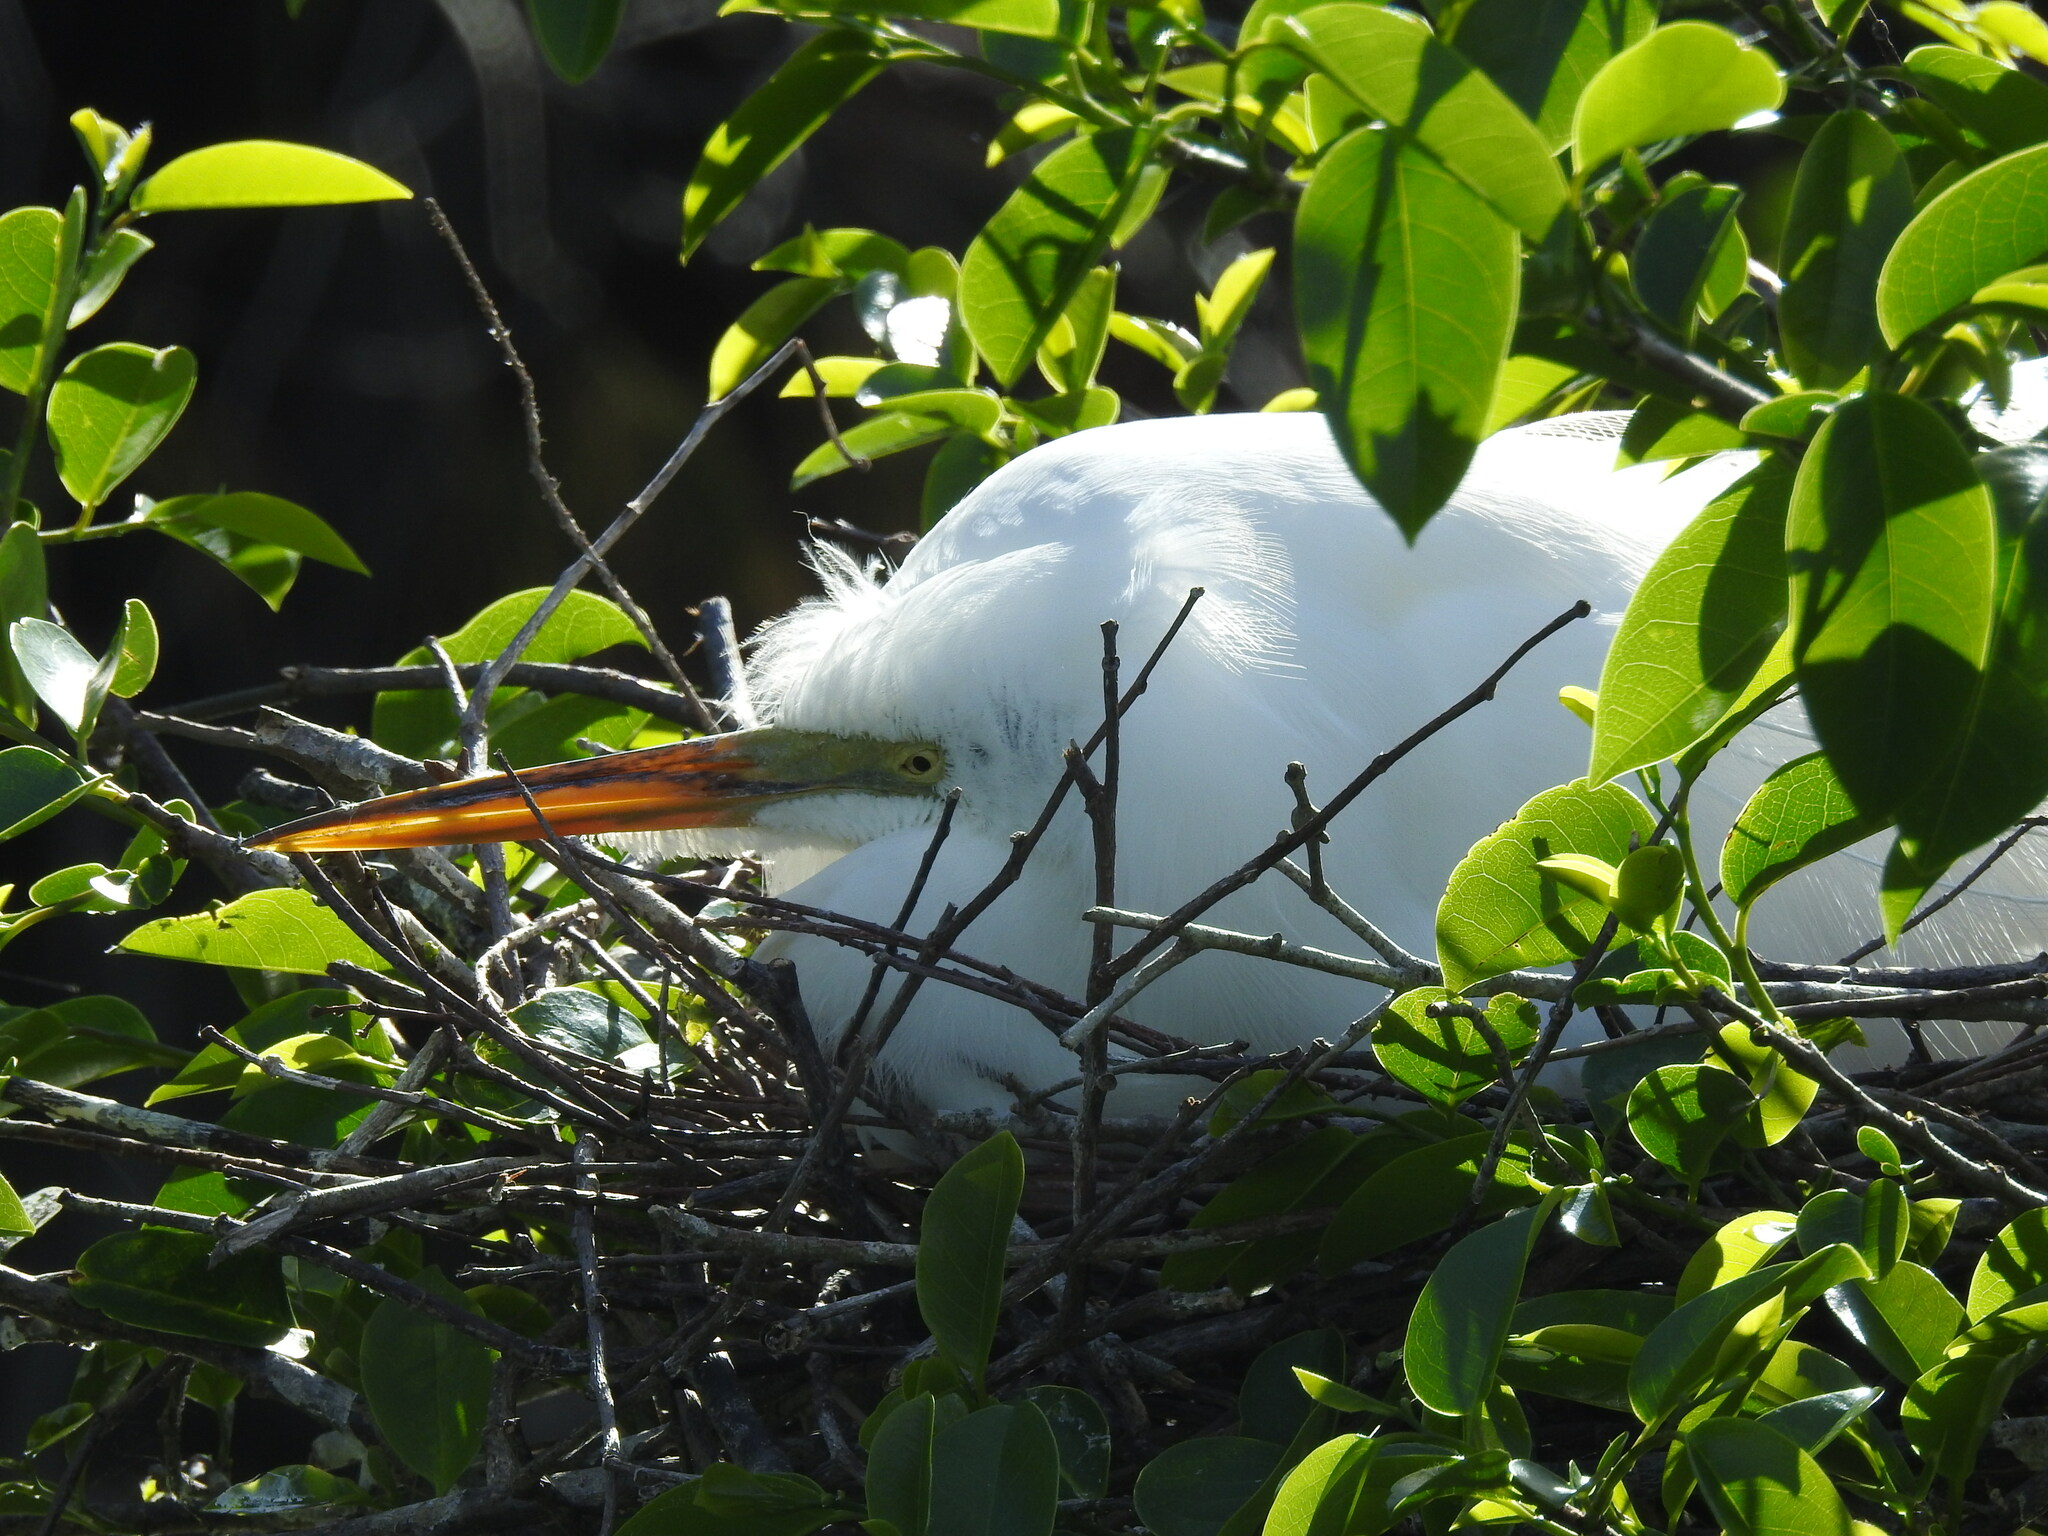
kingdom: Animalia
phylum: Chordata
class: Aves
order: Pelecaniformes
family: Ardeidae
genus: Ardea
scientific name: Ardea alba
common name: Great egret
